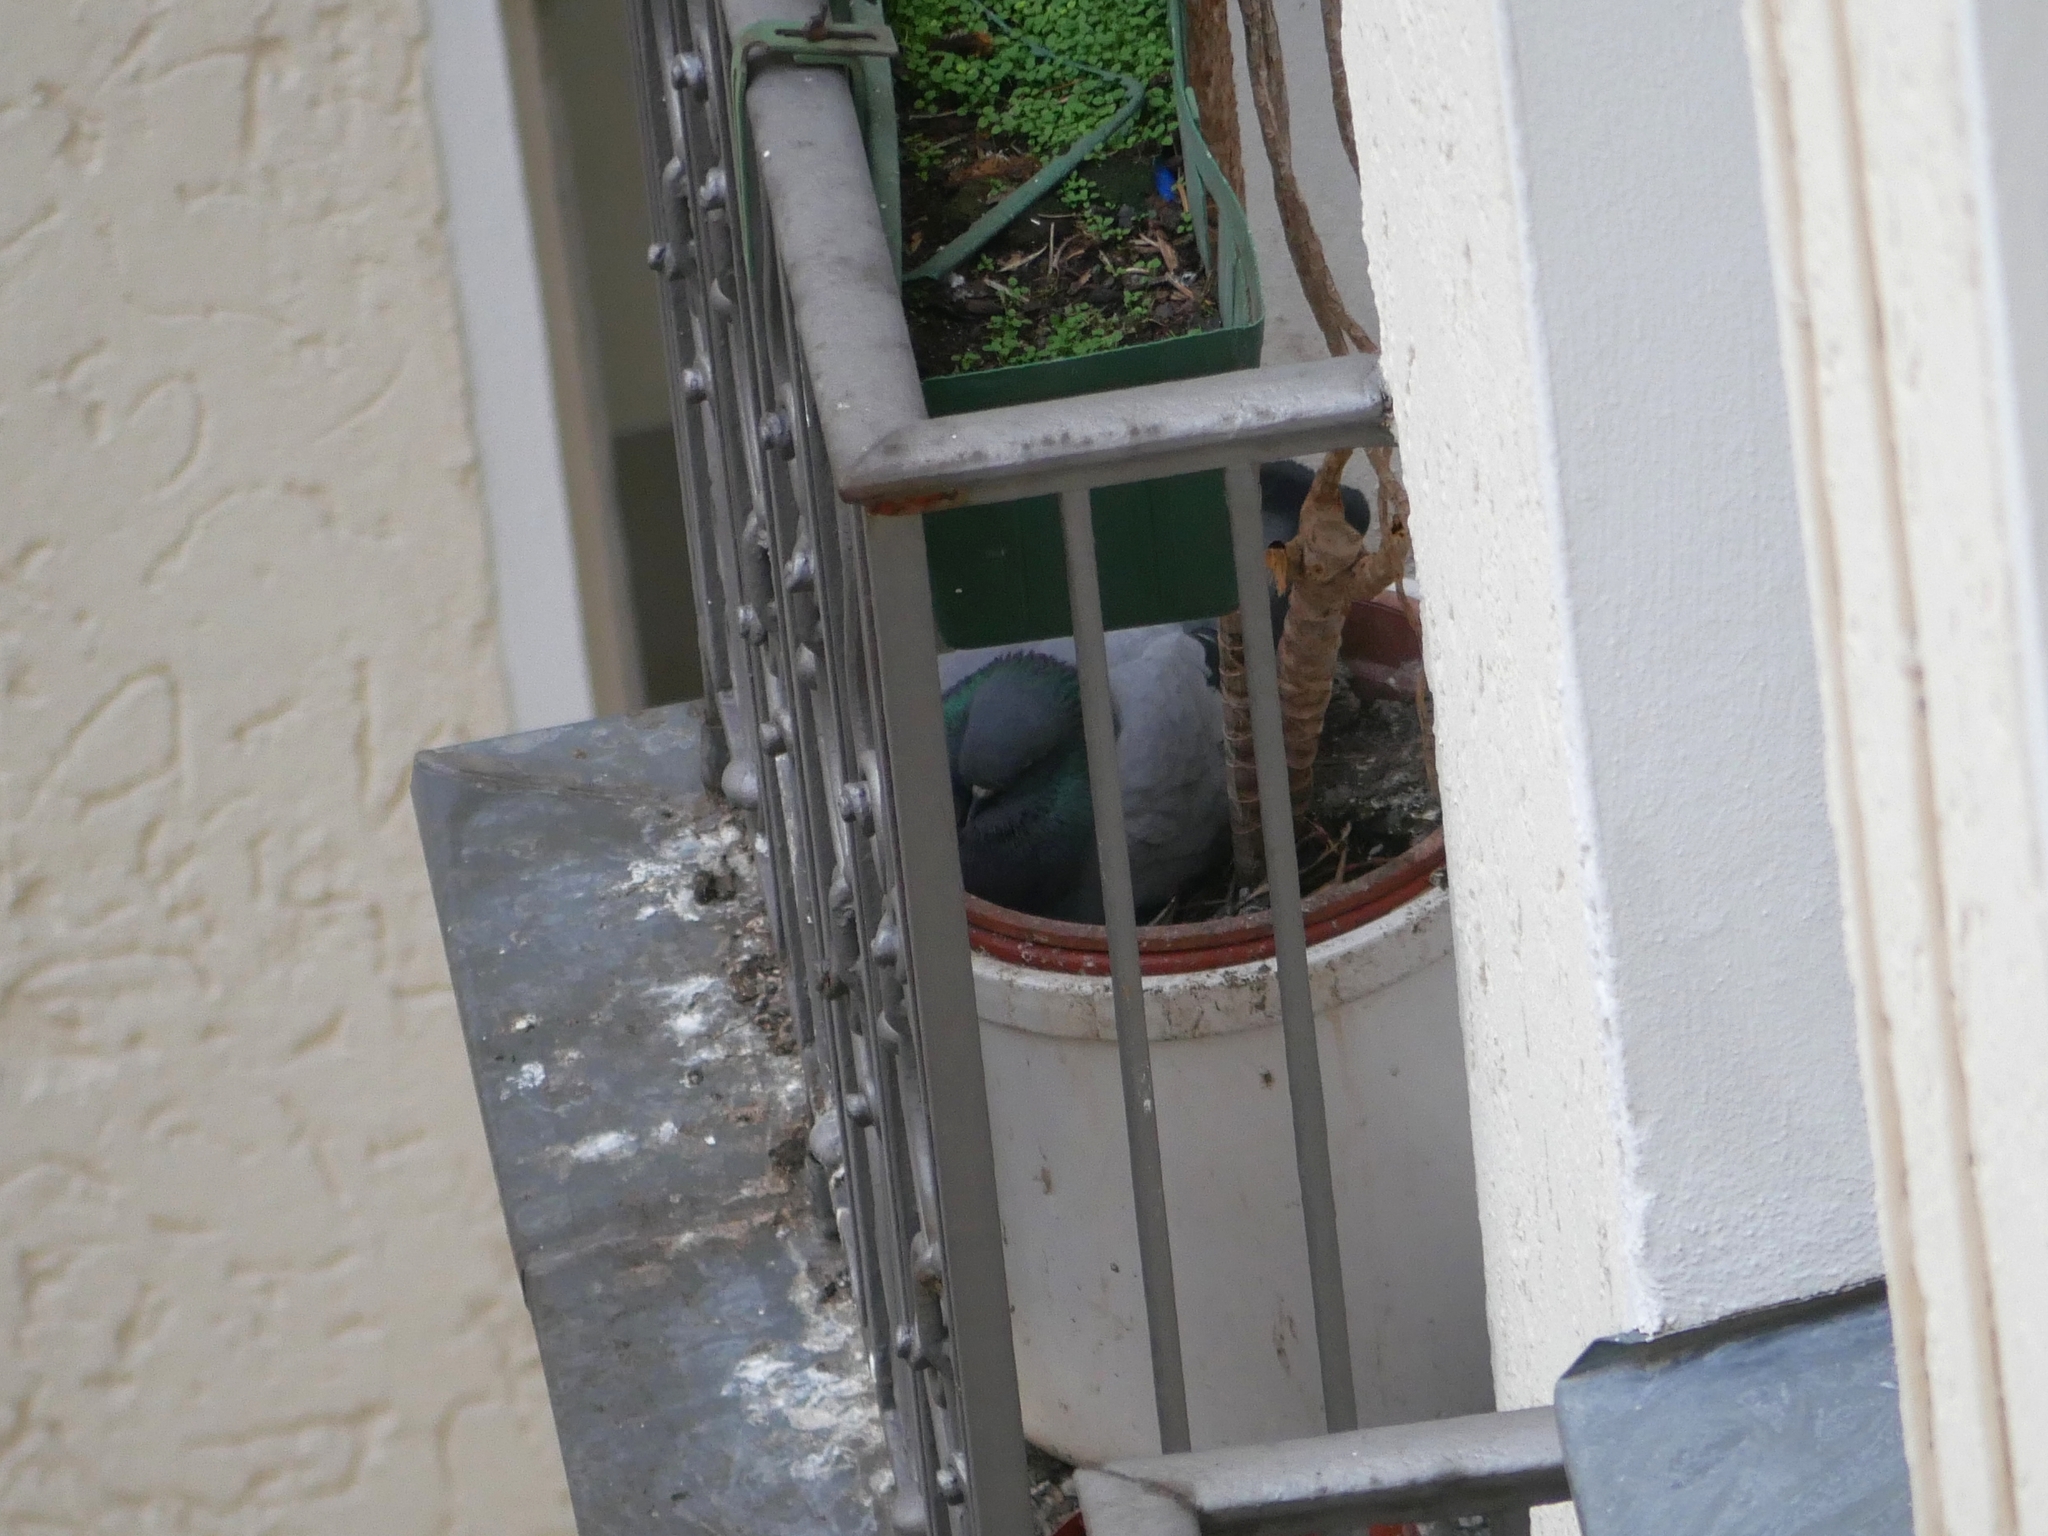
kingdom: Animalia
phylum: Chordata
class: Aves
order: Columbiformes
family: Columbidae
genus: Columba
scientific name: Columba livia
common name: Rock pigeon
